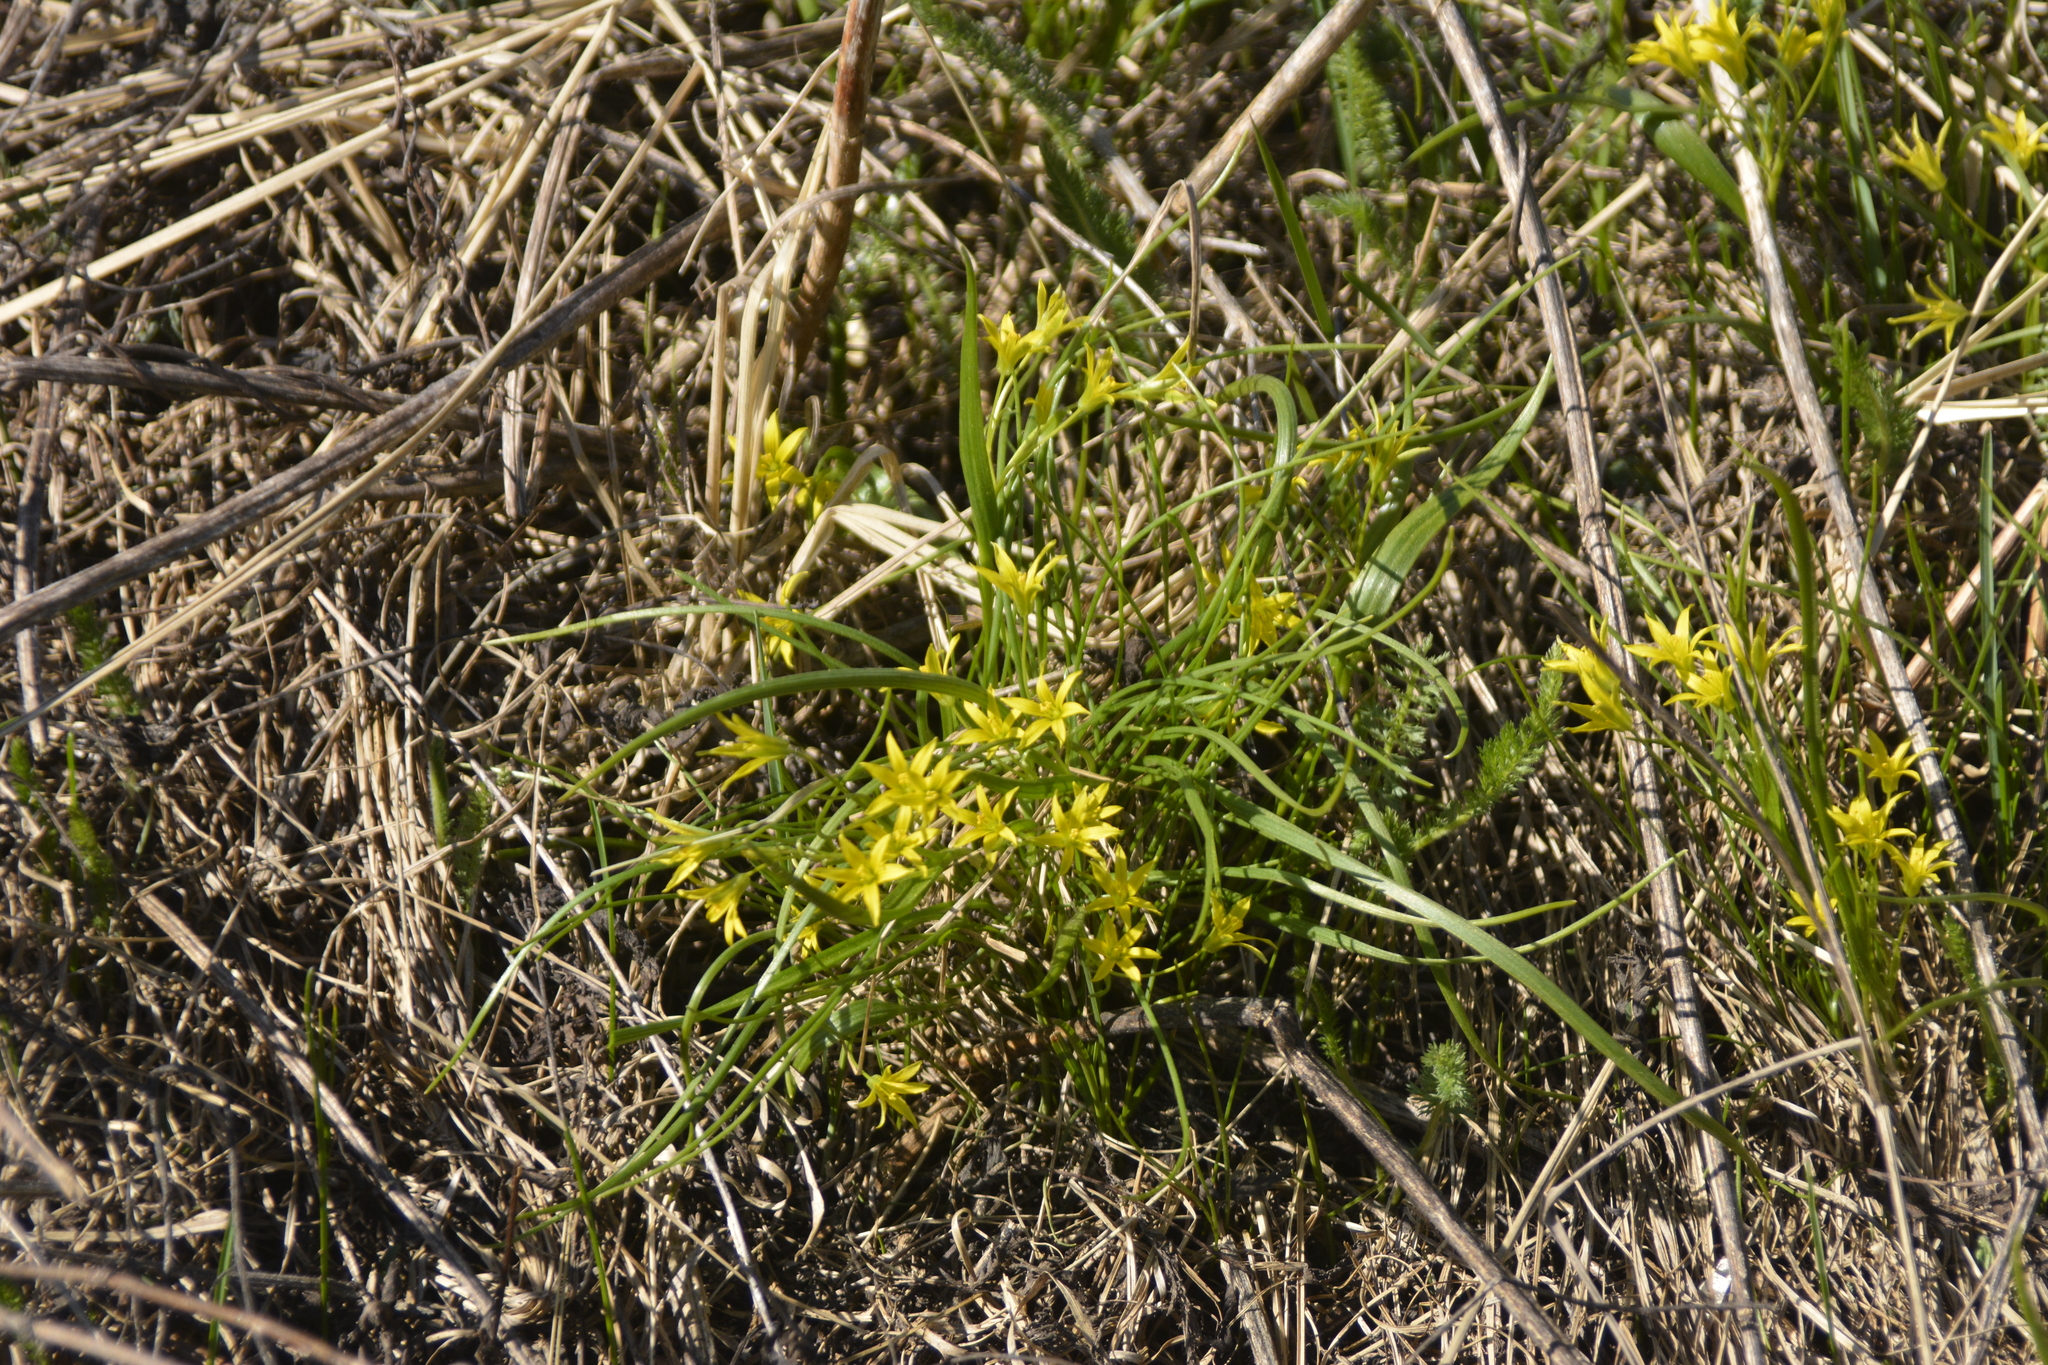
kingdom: Plantae
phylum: Tracheophyta
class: Liliopsida
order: Liliales
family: Liliaceae
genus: Gagea
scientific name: Gagea minima
